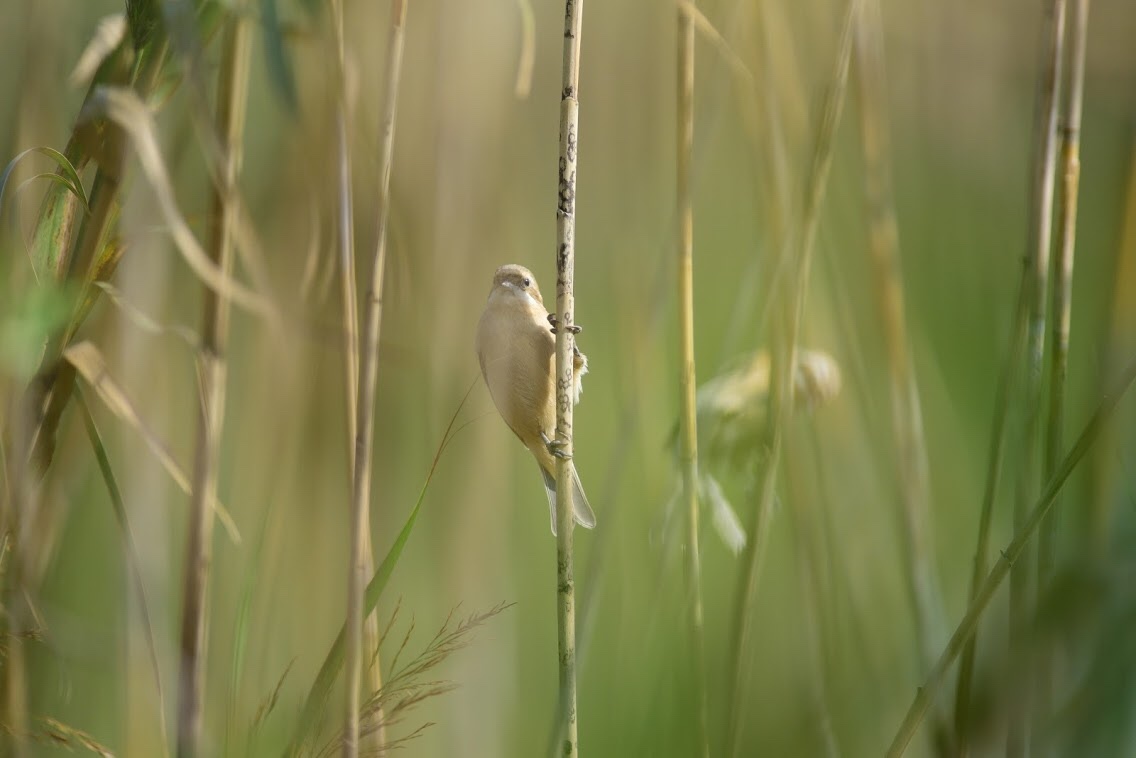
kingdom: Animalia
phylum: Chordata
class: Aves
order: Passeriformes
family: Remizidae
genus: Remiz
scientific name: Remiz consobrinus
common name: Chinese penduline tit
